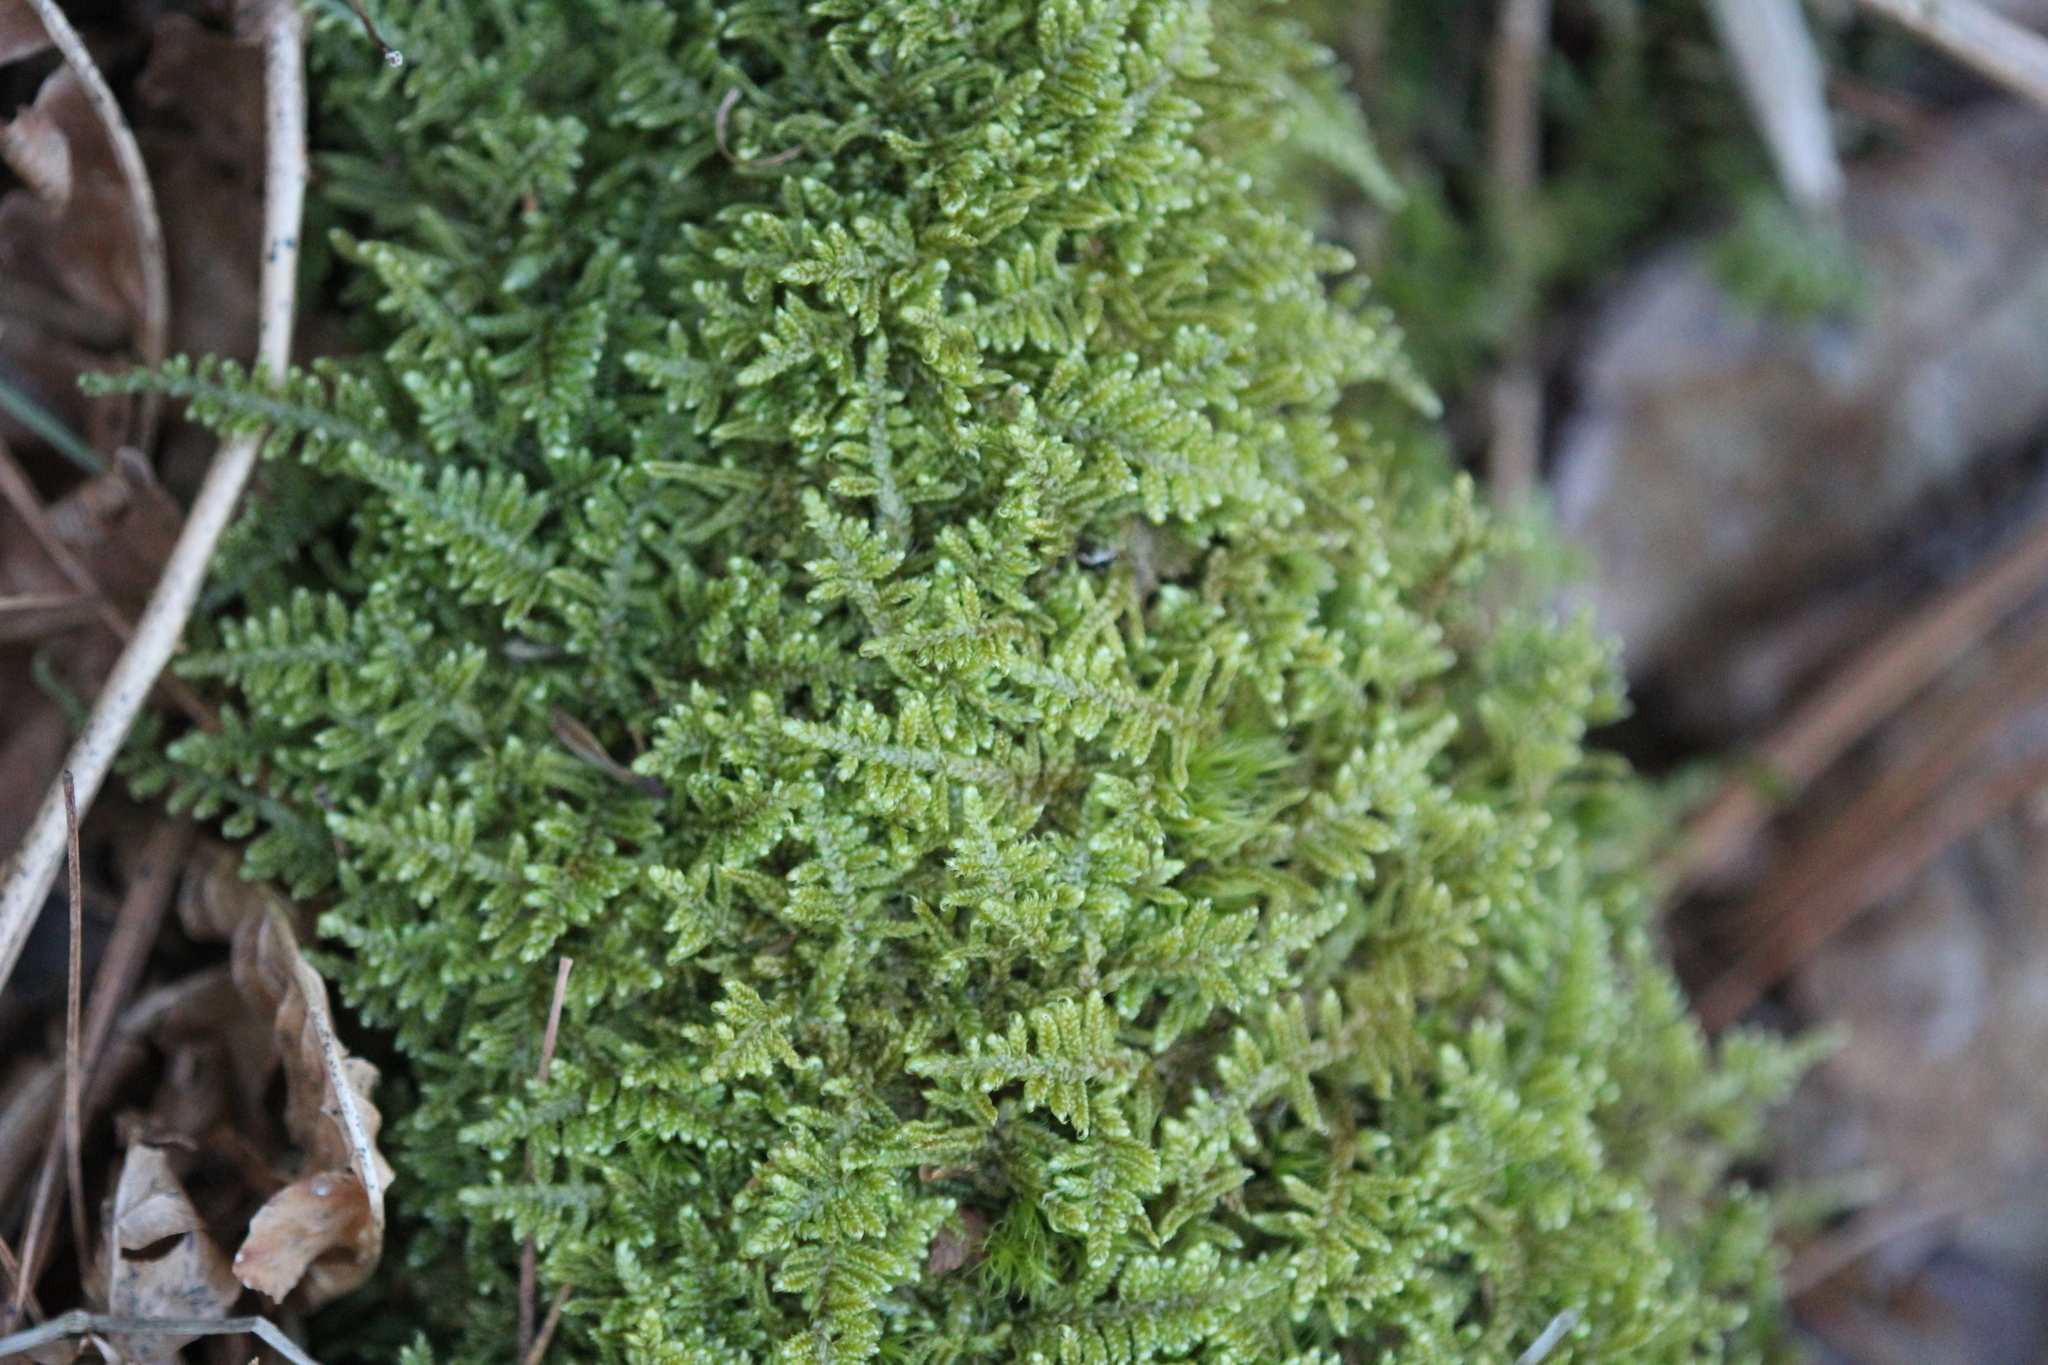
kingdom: Plantae
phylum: Bryophyta
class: Bryopsida
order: Hypnales
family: Callicladiaceae
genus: Callicladium
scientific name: Callicladium imponens
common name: Brocade moss
